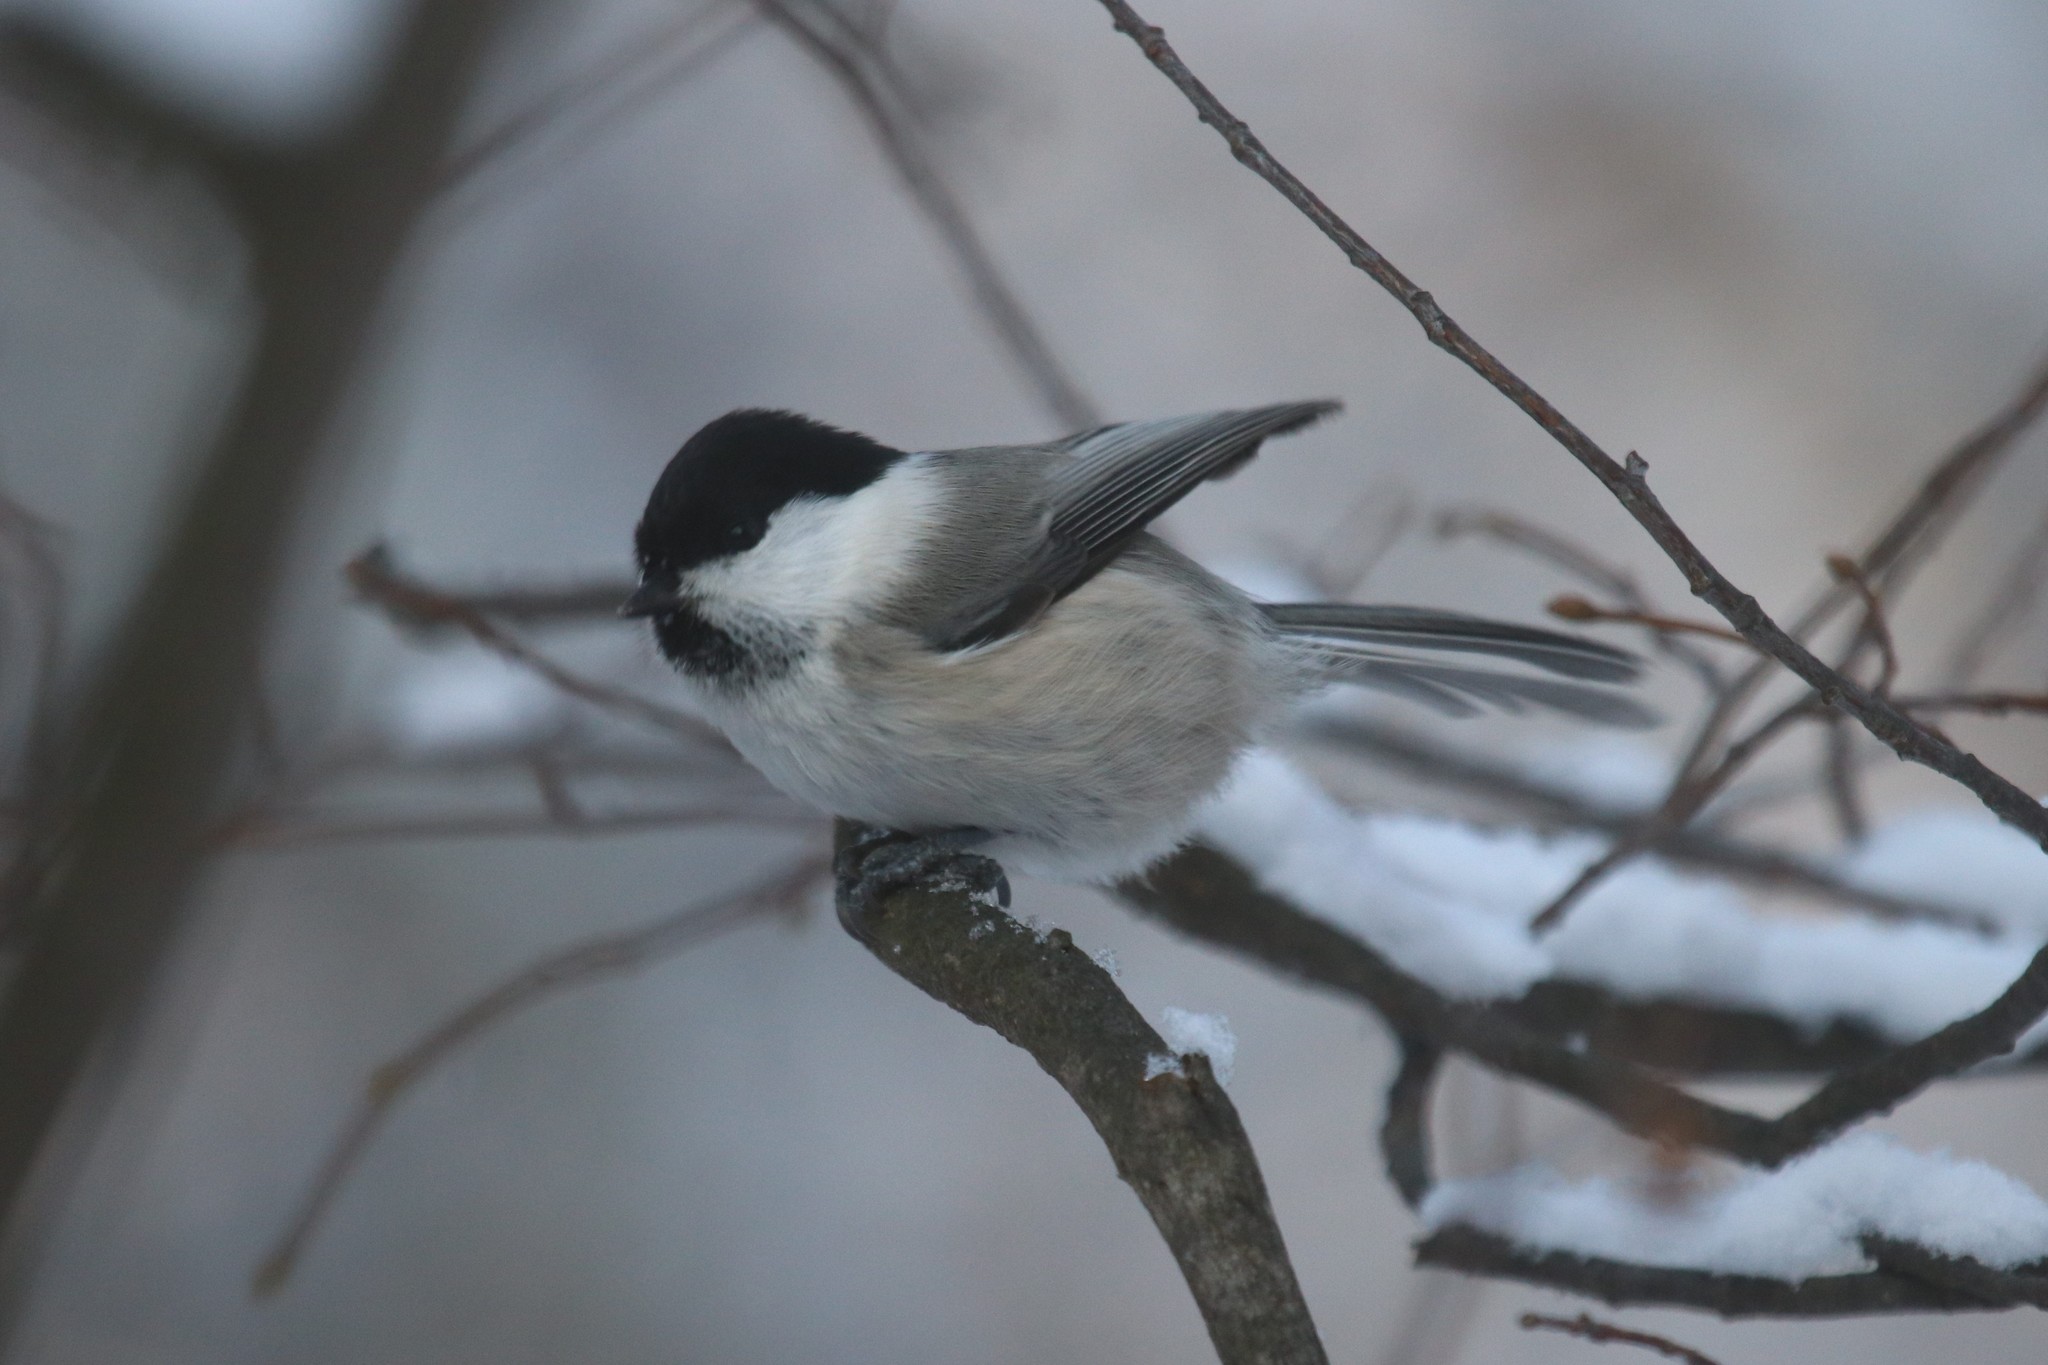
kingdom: Animalia
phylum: Chordata
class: Aves
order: Passeriformes
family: Paridae
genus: Poecile
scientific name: Poecile montanus
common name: Willow tit
